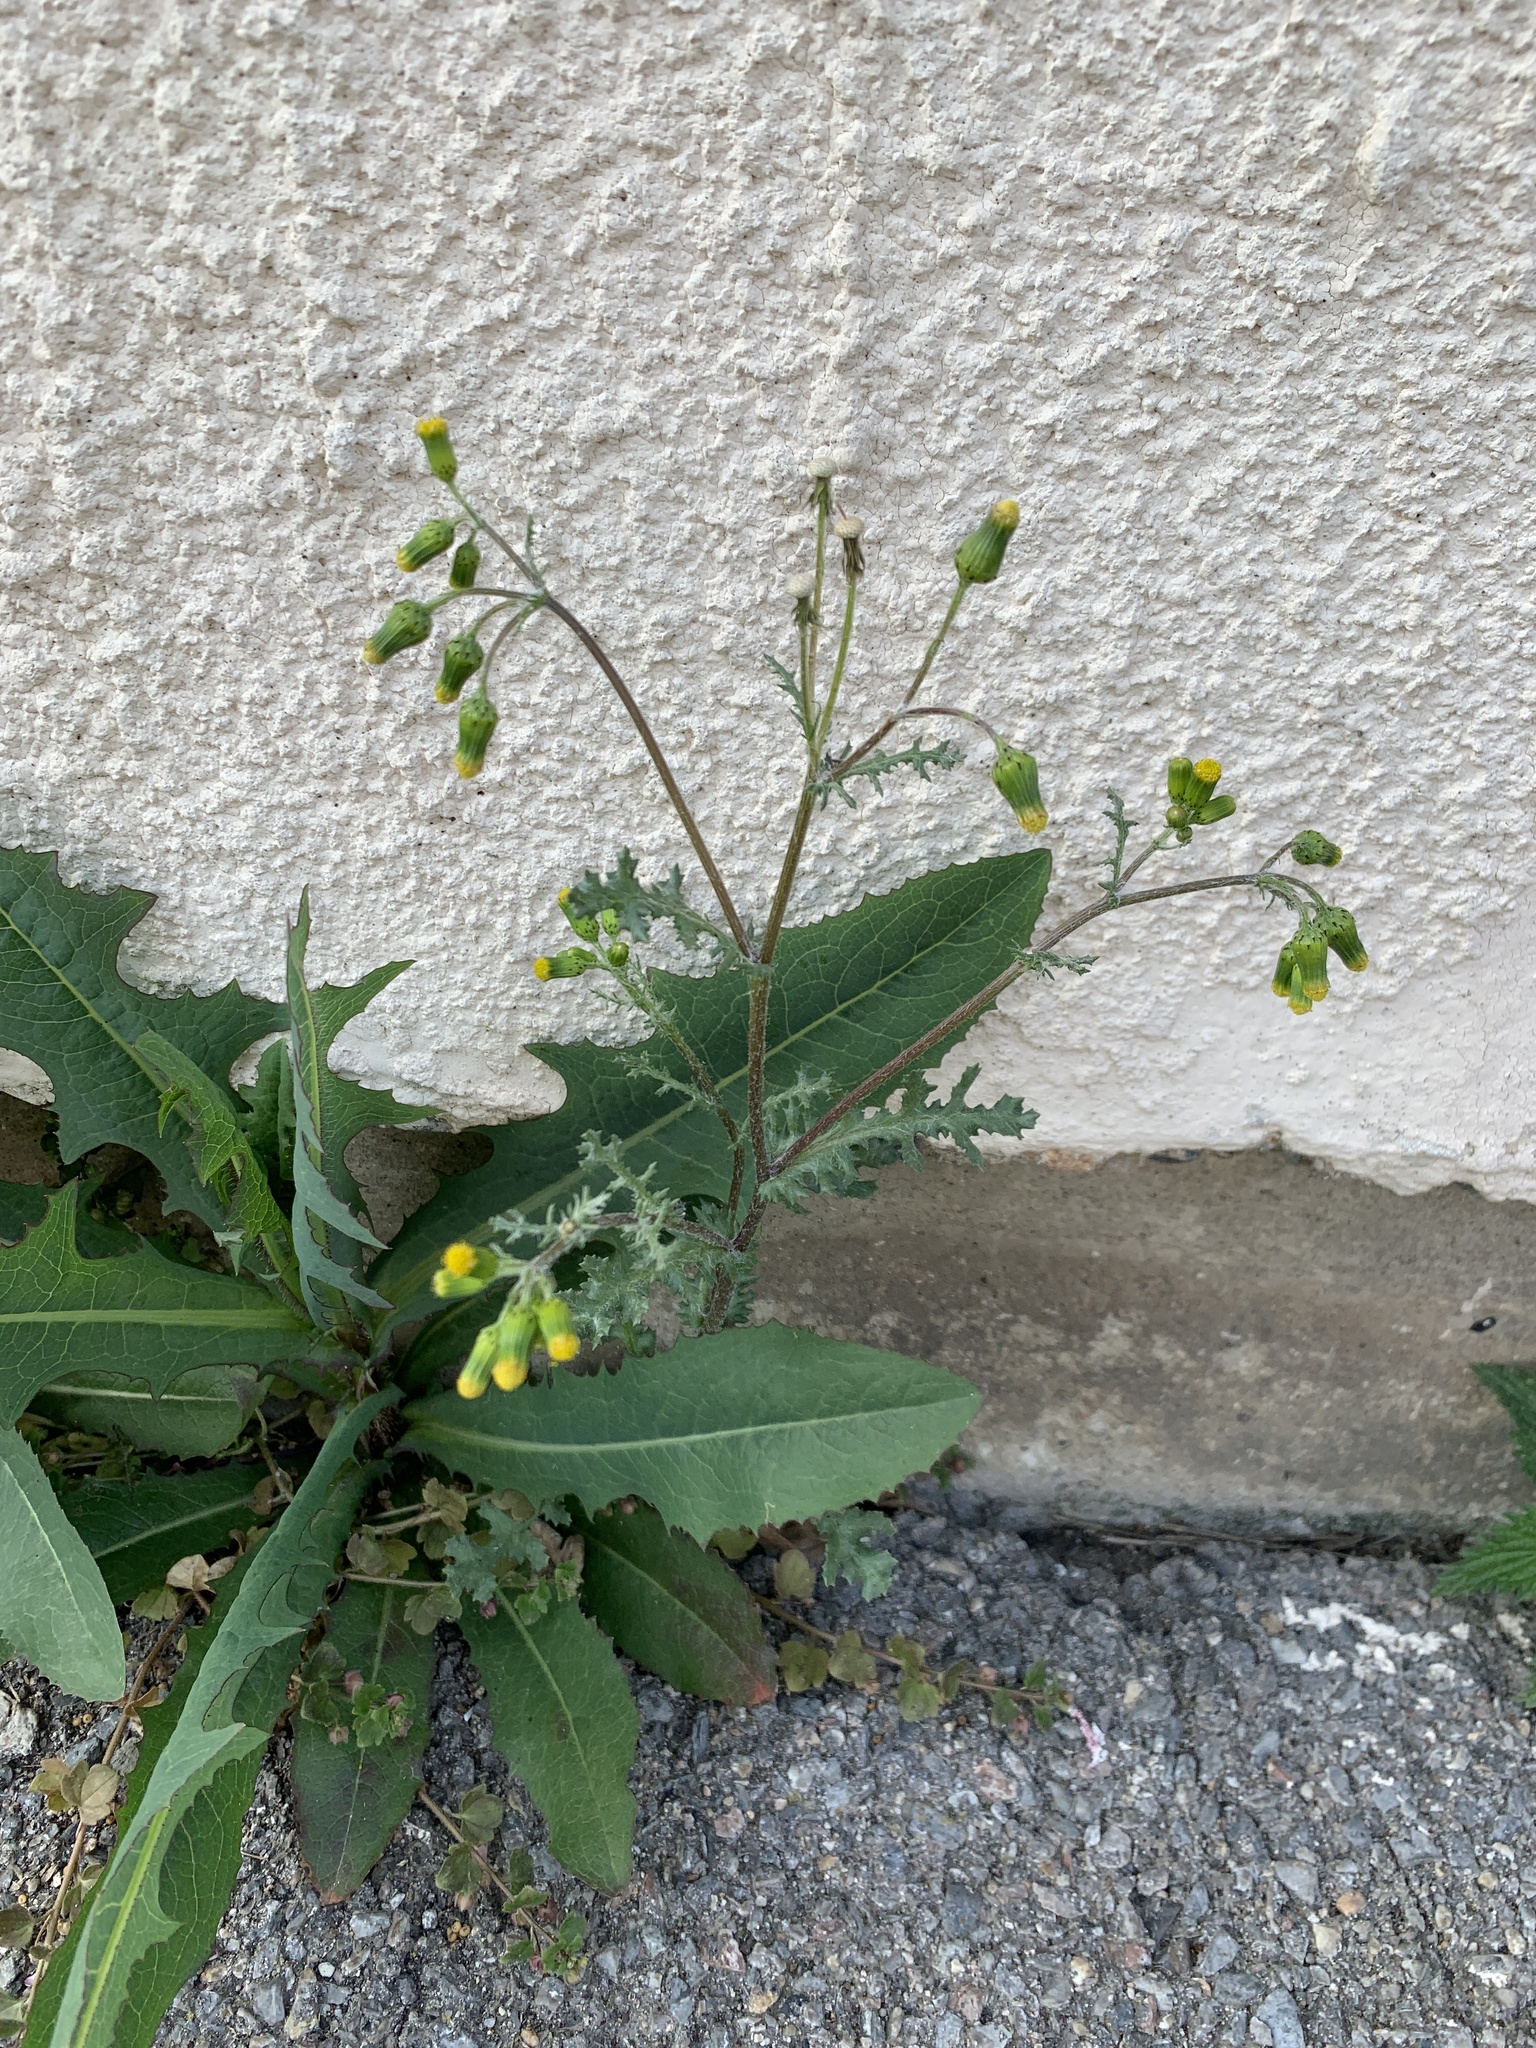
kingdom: Plantae
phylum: Tracheophyta
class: Magnoliopsida
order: Asterales
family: Asteraceae
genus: Senecio
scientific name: Senecio vulgaris
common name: Old-man-in-the-spring
